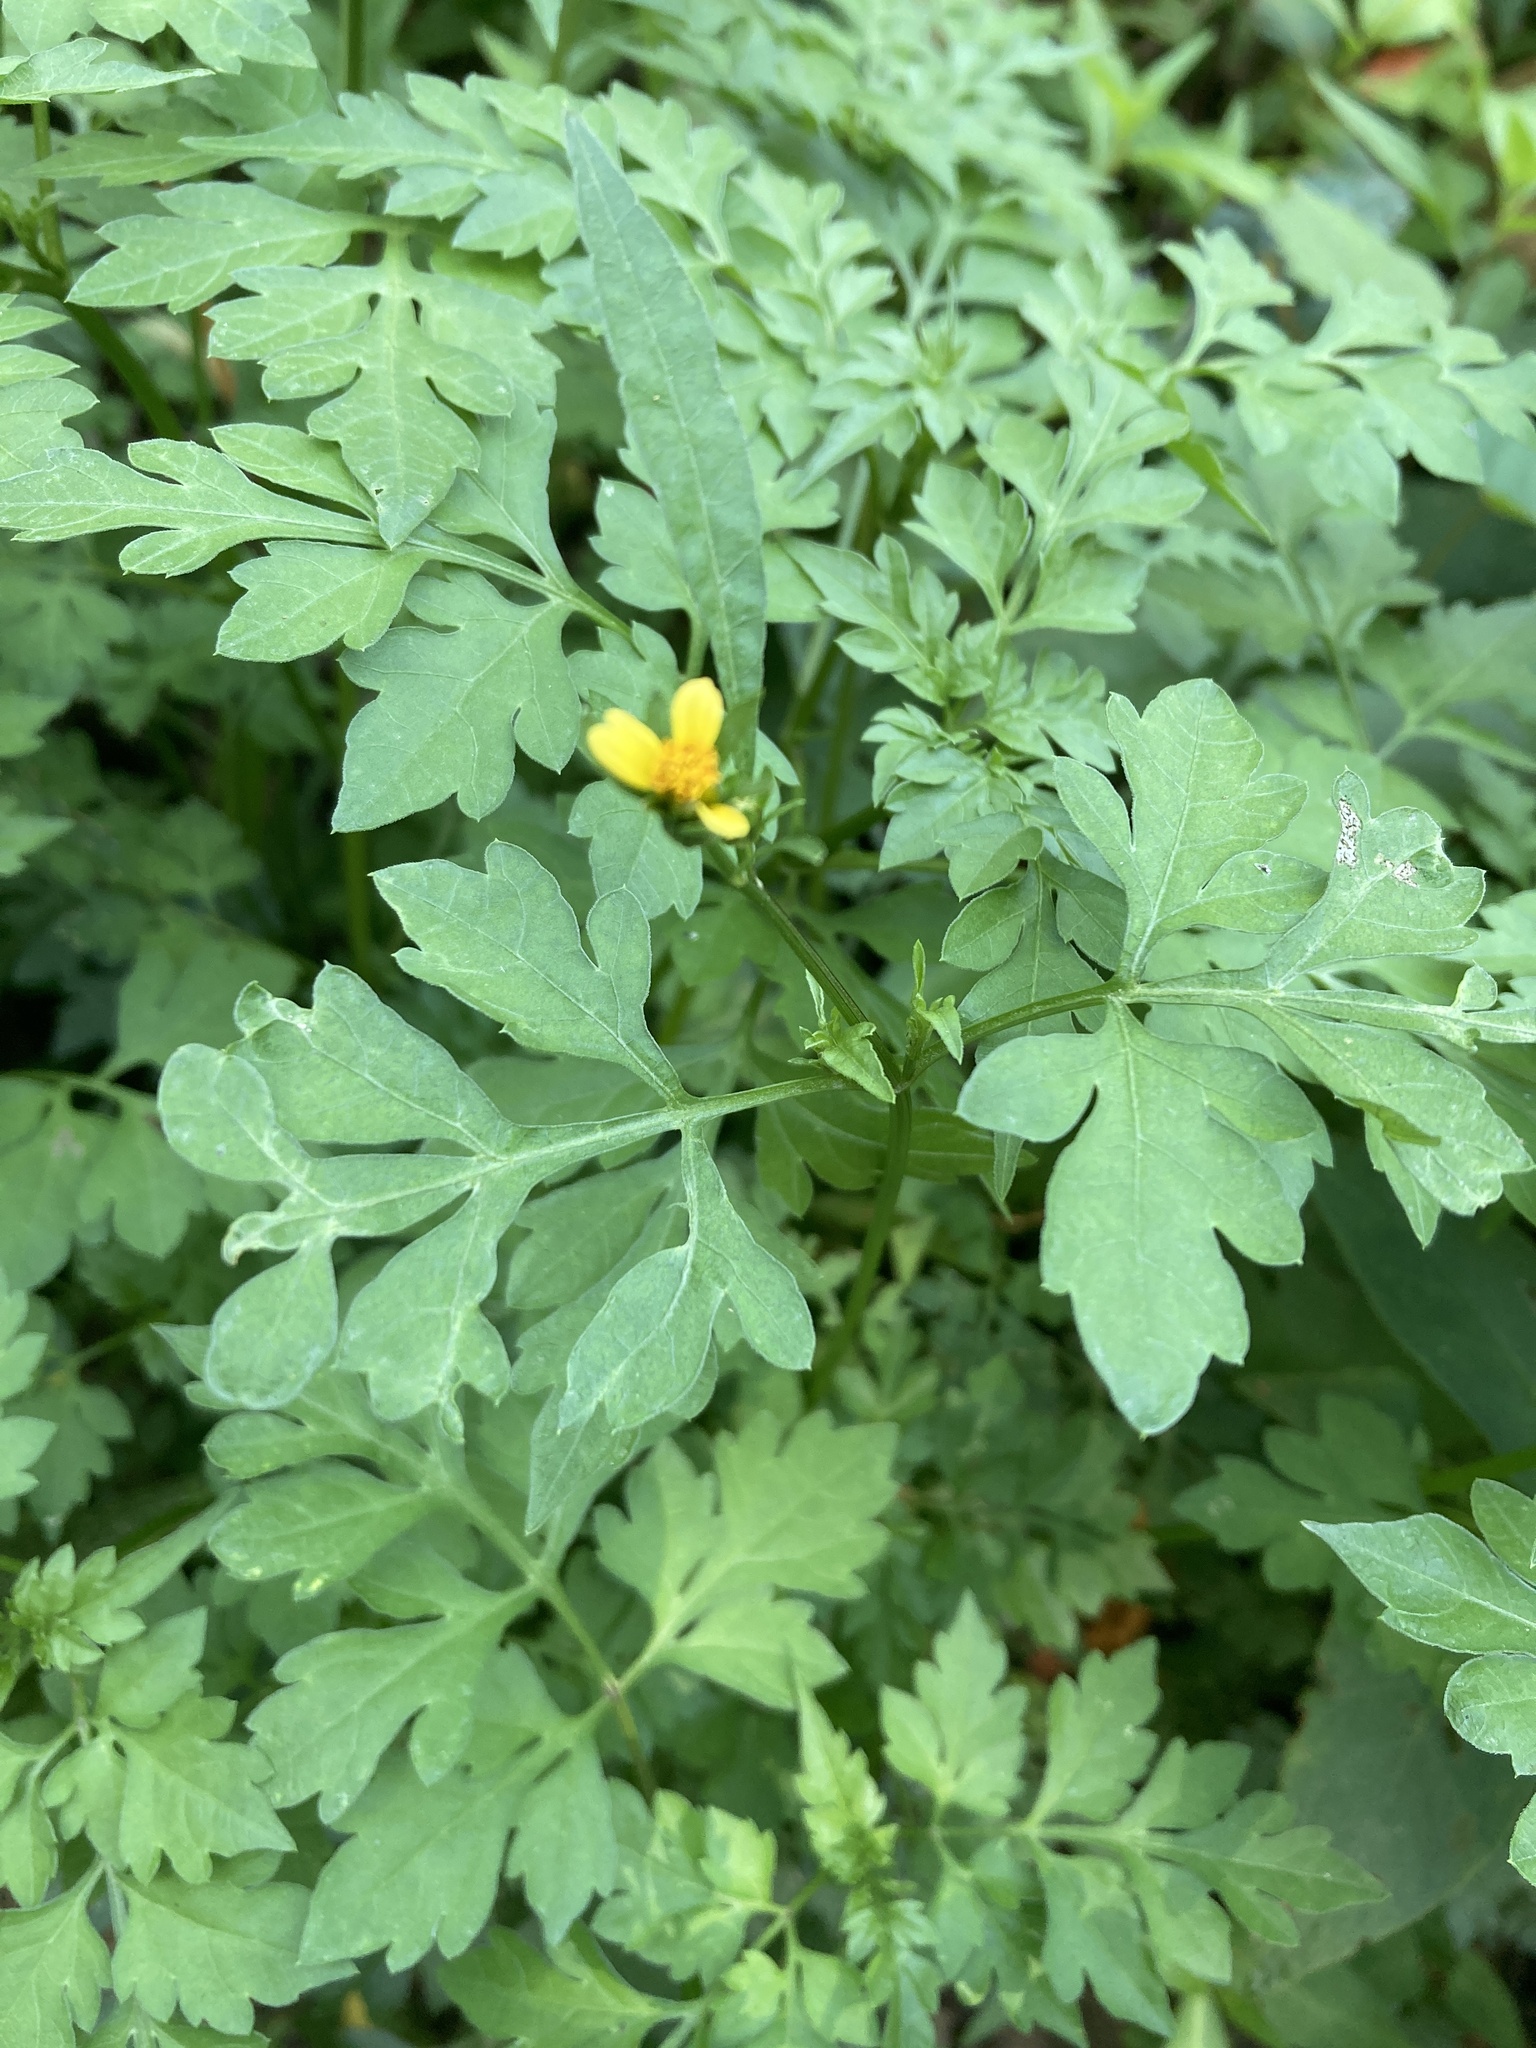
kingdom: Plantae
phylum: Tracheophyta
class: Magnoliopsida
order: Asterales
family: Asteraceae
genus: Bidens
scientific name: Bidens bipinnata
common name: Spanish-needles
